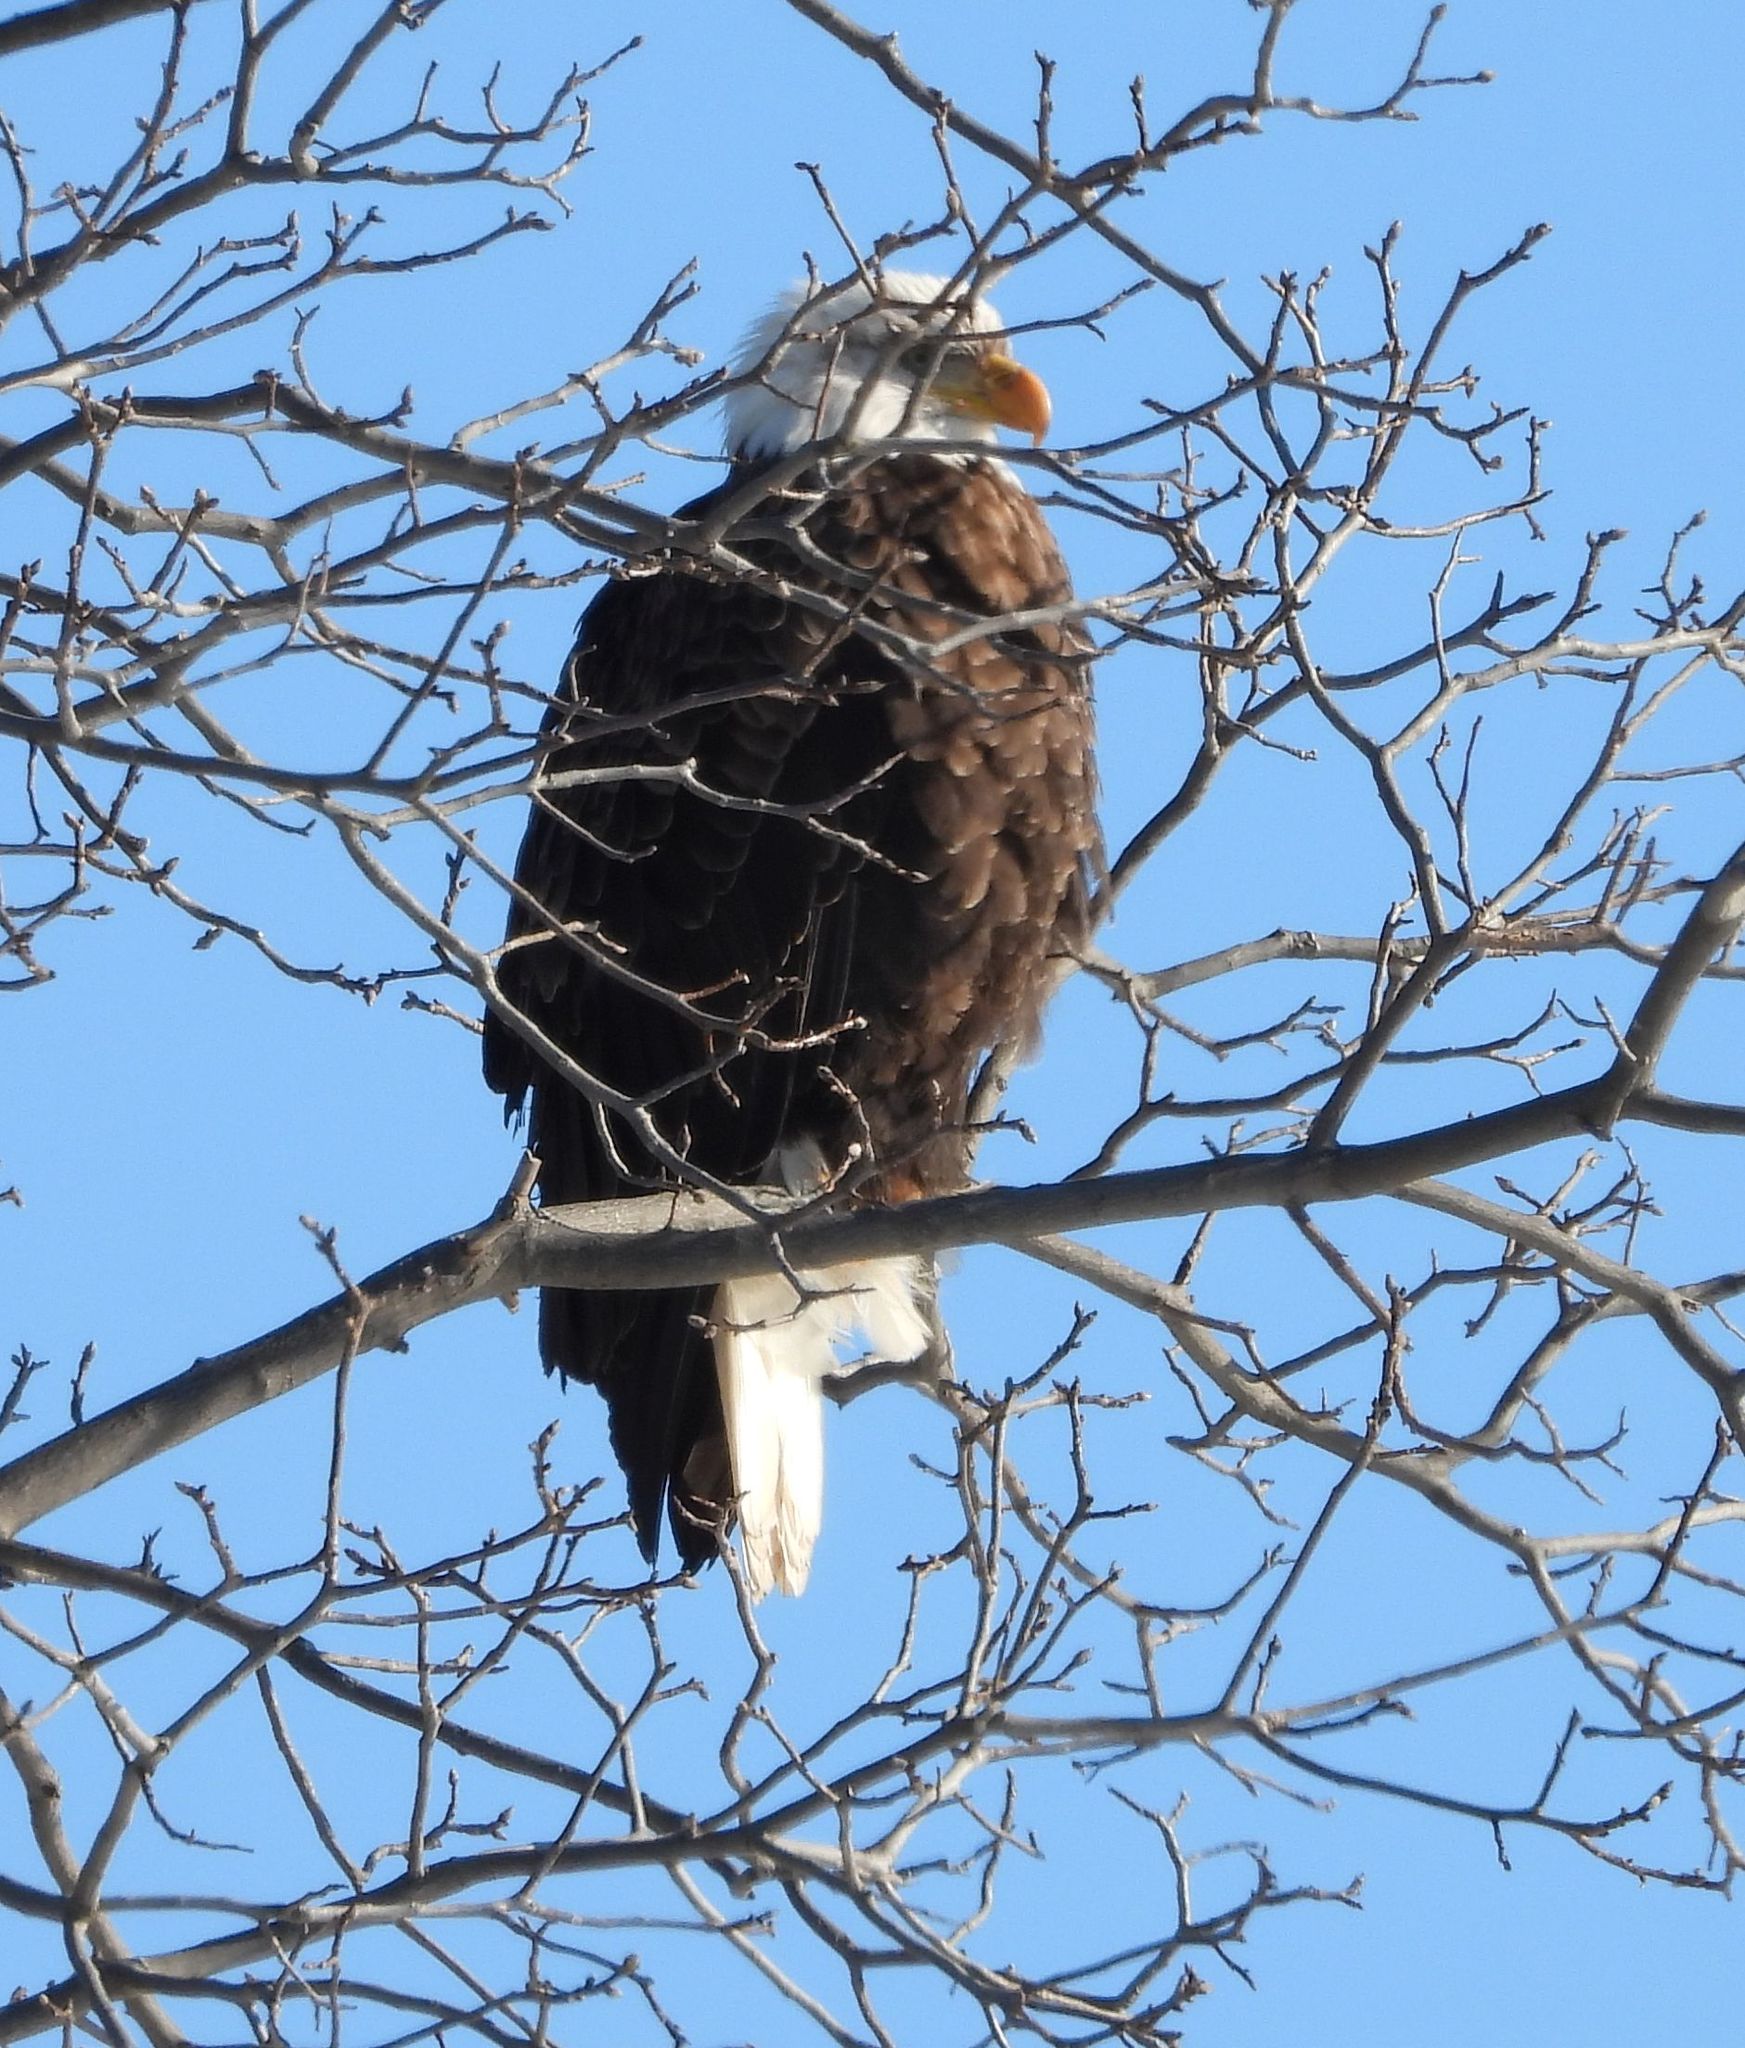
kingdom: Animalia
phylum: Chordata
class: Aves
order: Accipitriformes
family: Accipitridae
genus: Haliaeetus
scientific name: Haliaeetus leucocephalus
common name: Bald eagle
